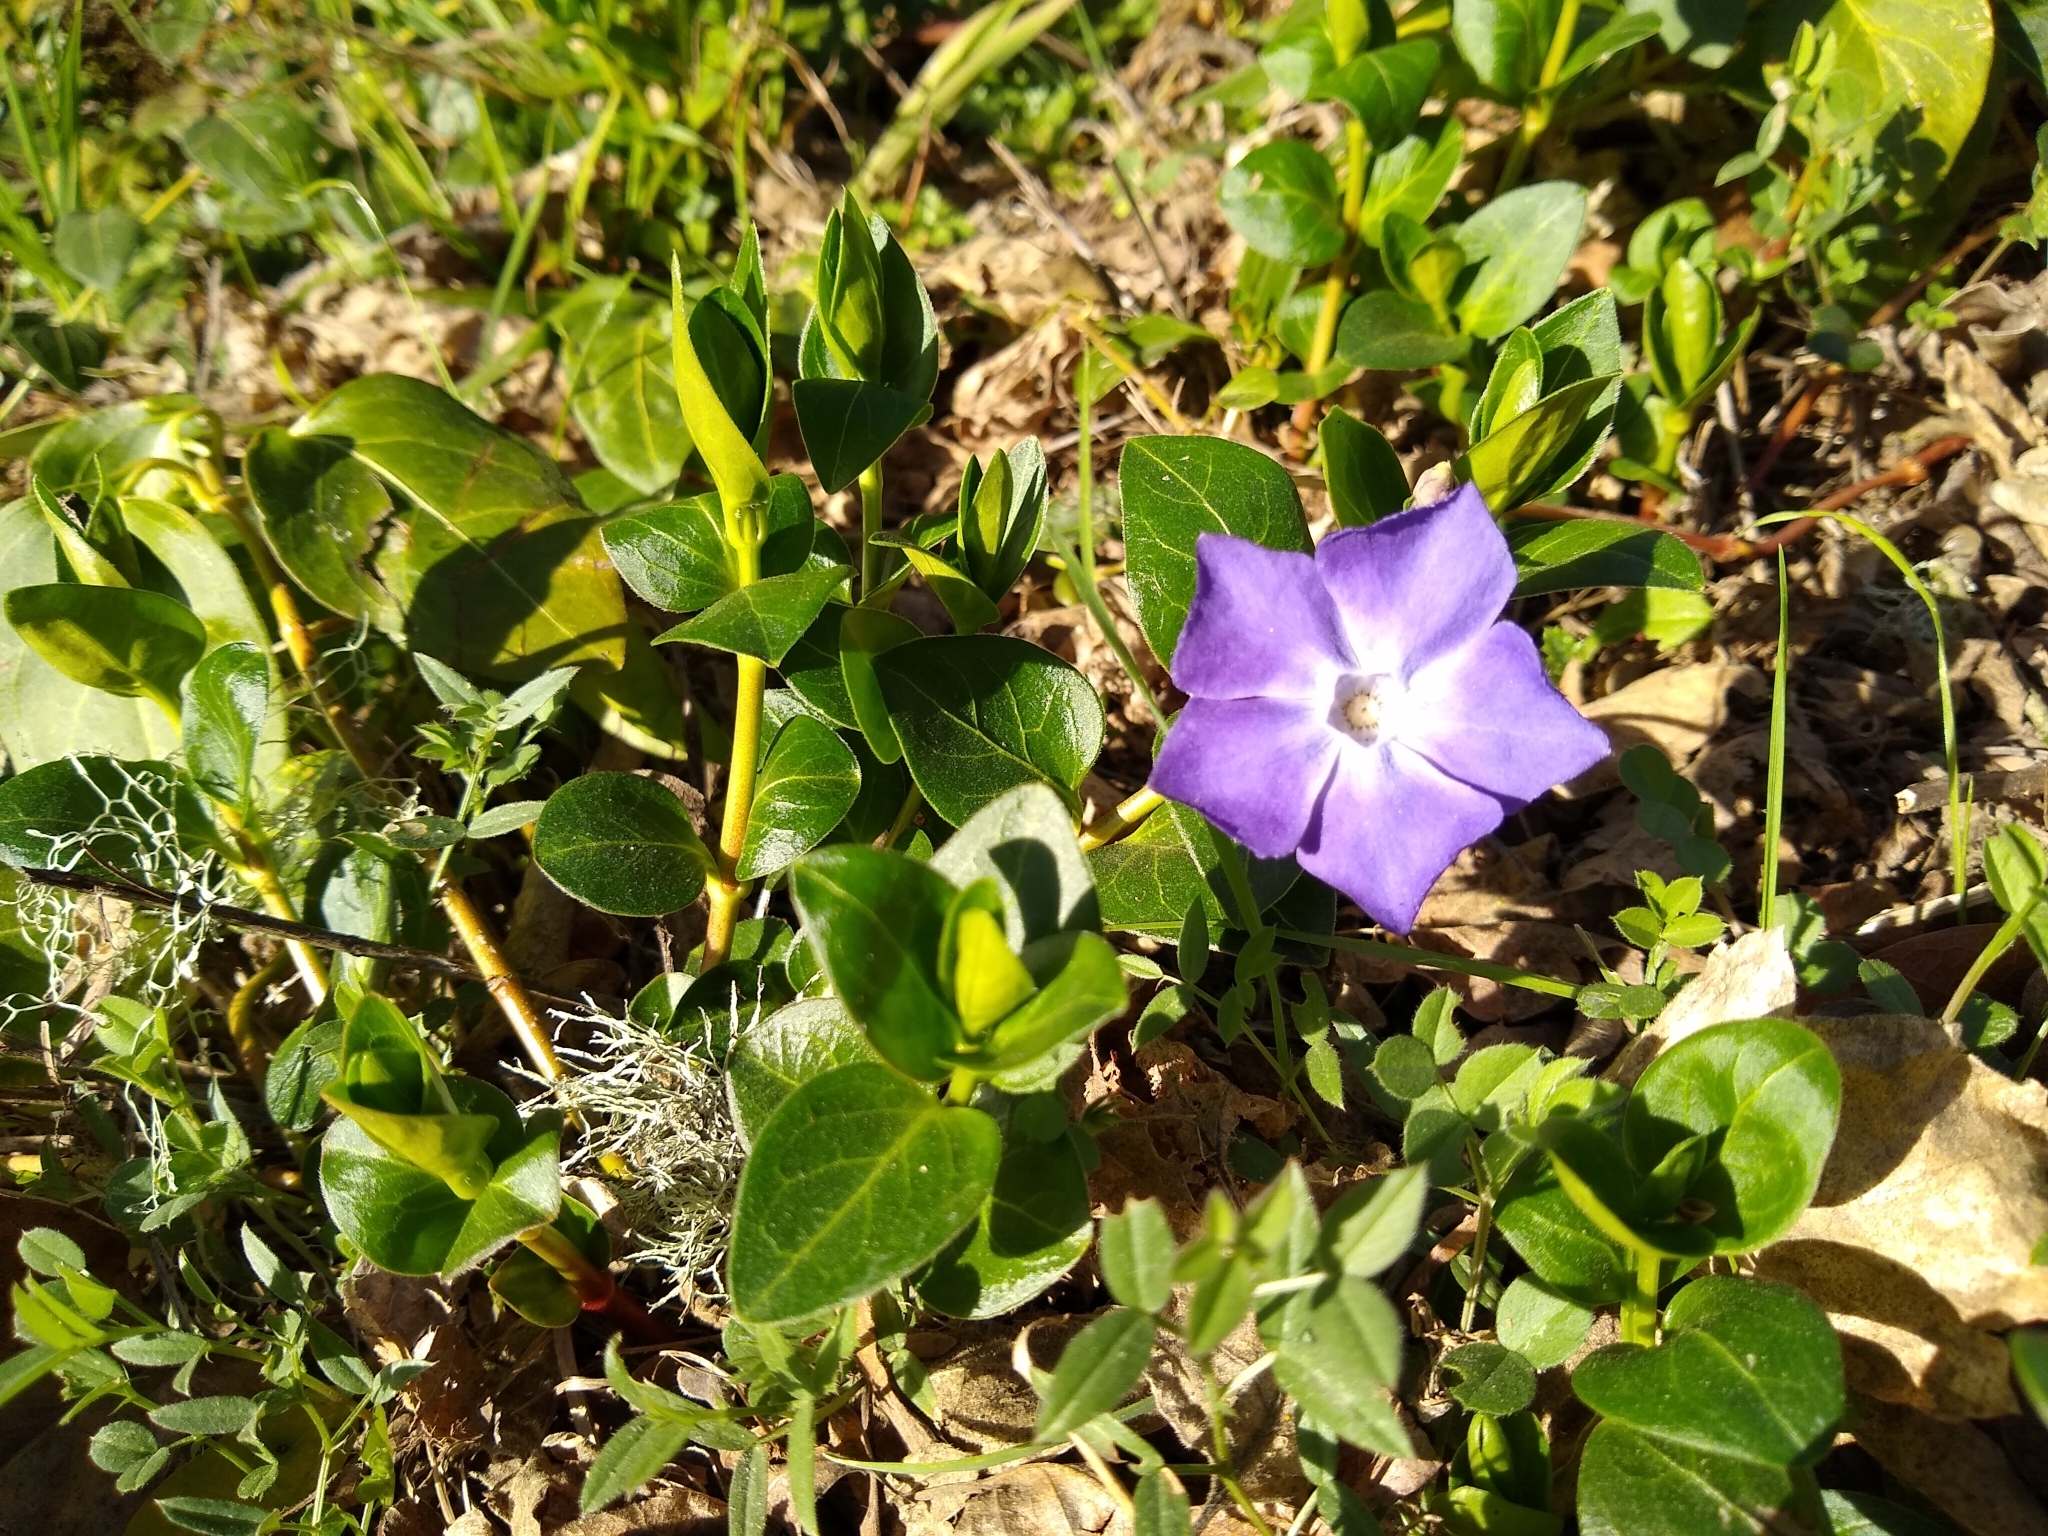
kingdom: Plantae
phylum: Tracheophyta
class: Magnoliopsida
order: Gentianales
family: Apocynaceae
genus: Vinca
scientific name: Vinca major
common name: Greater periwinkle
